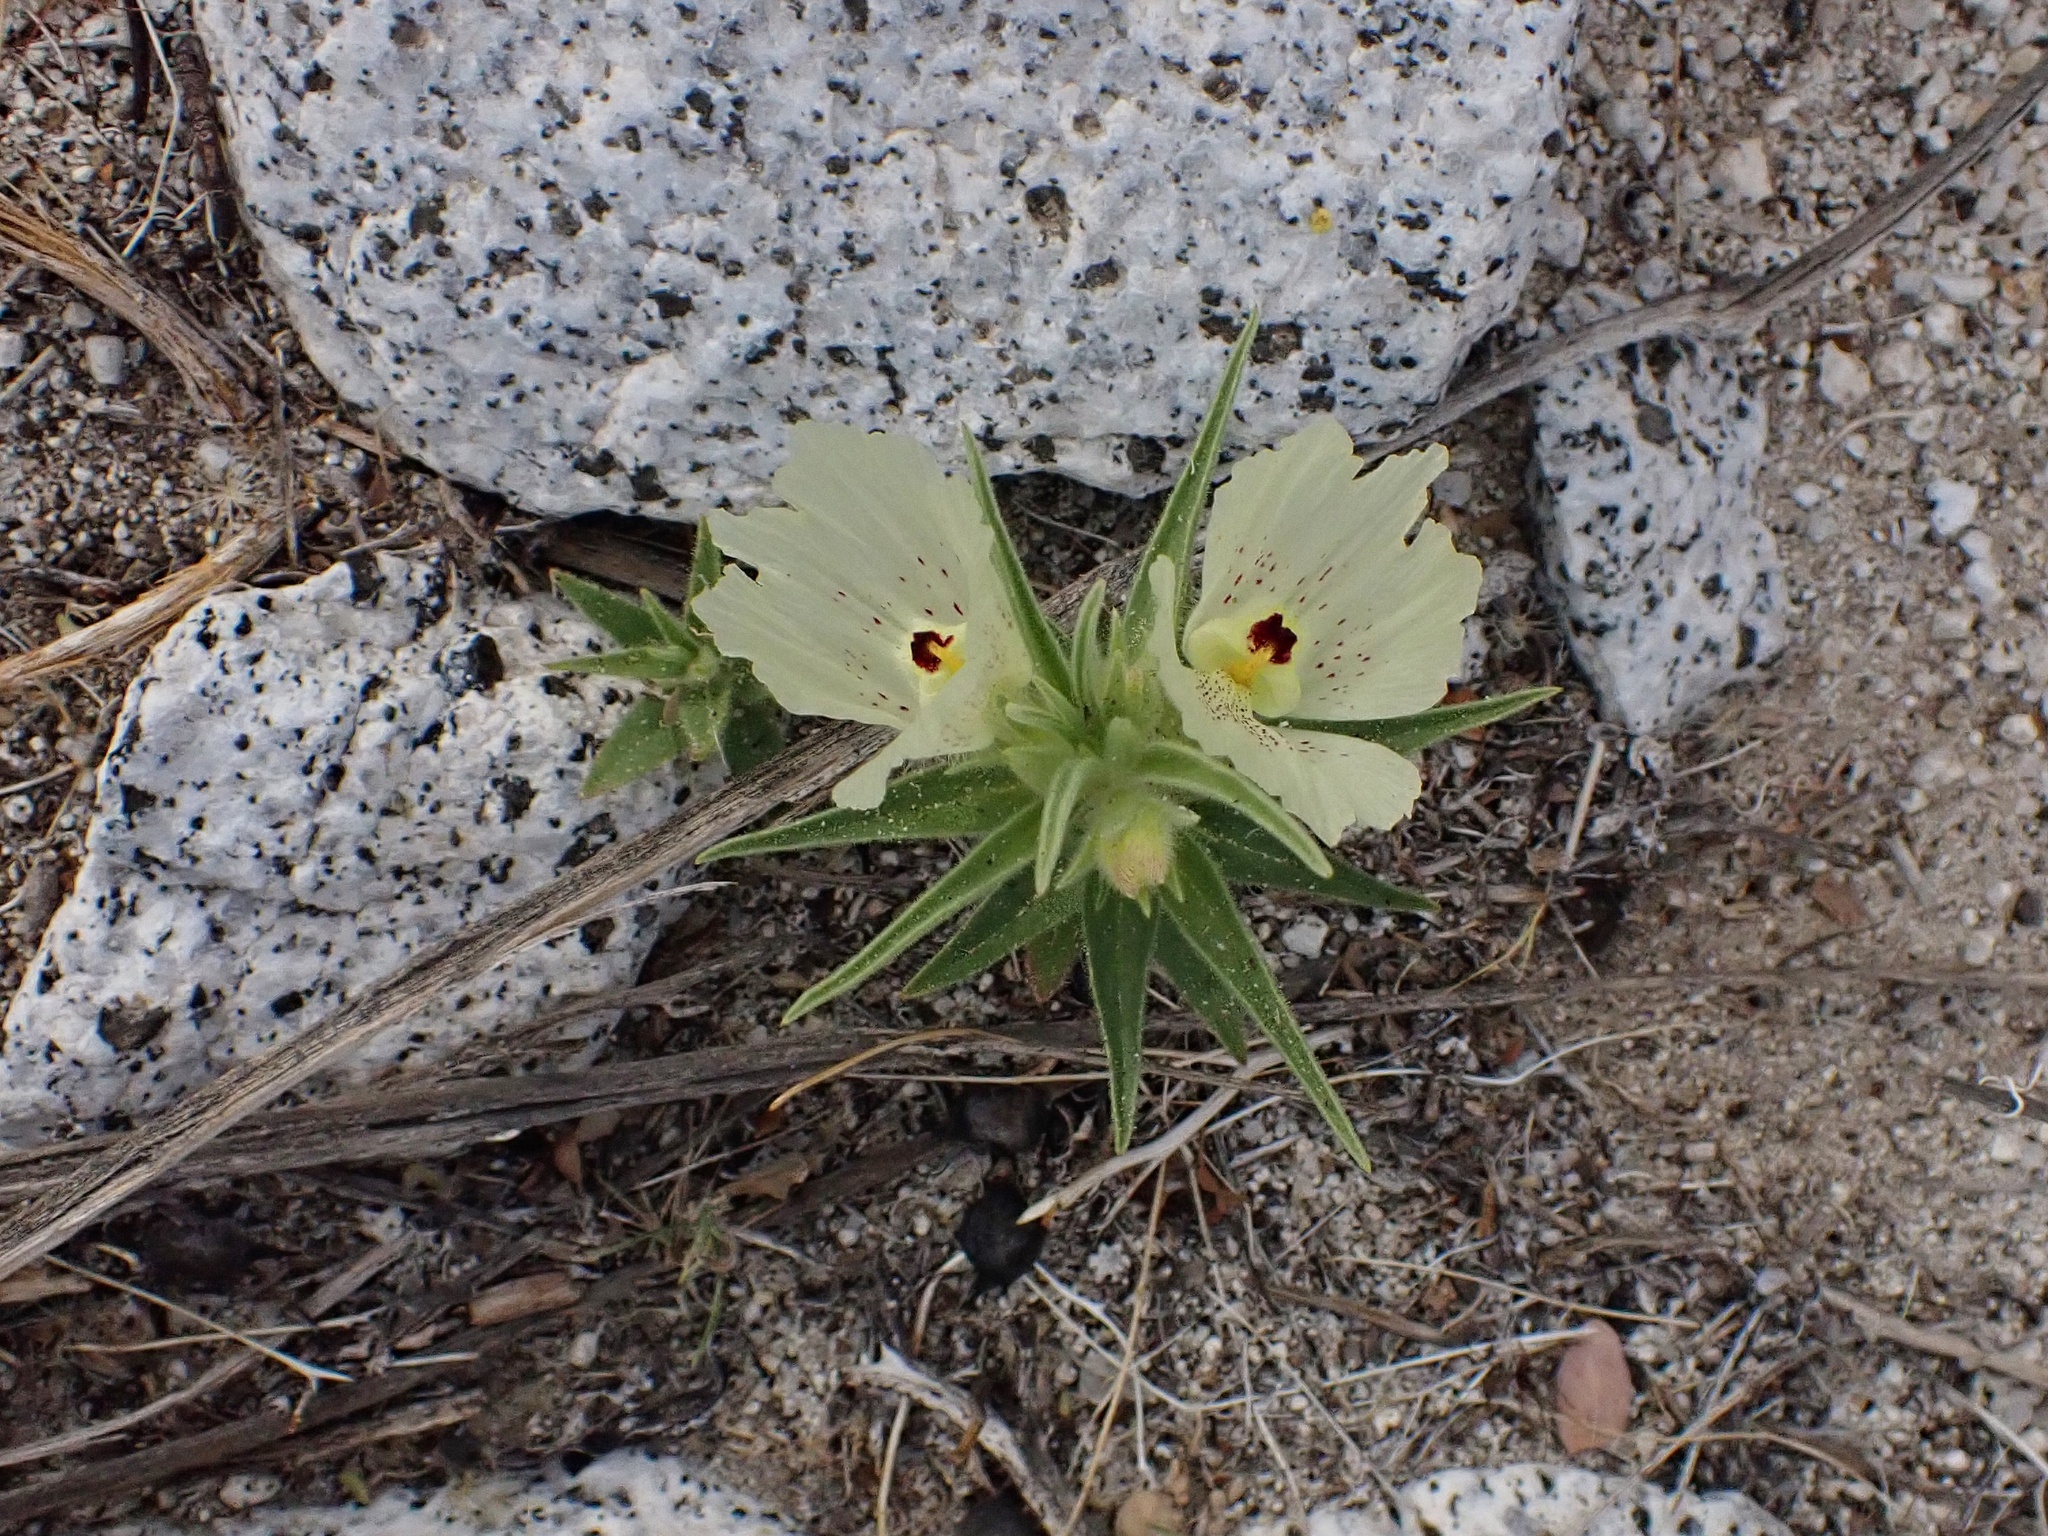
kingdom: Plantae
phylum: Tracheophyta
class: Magnoliopsida
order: Lamiales
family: Plantaginaceae
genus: Mohavea
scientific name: Mohavea confertiflora
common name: Ghost flower
